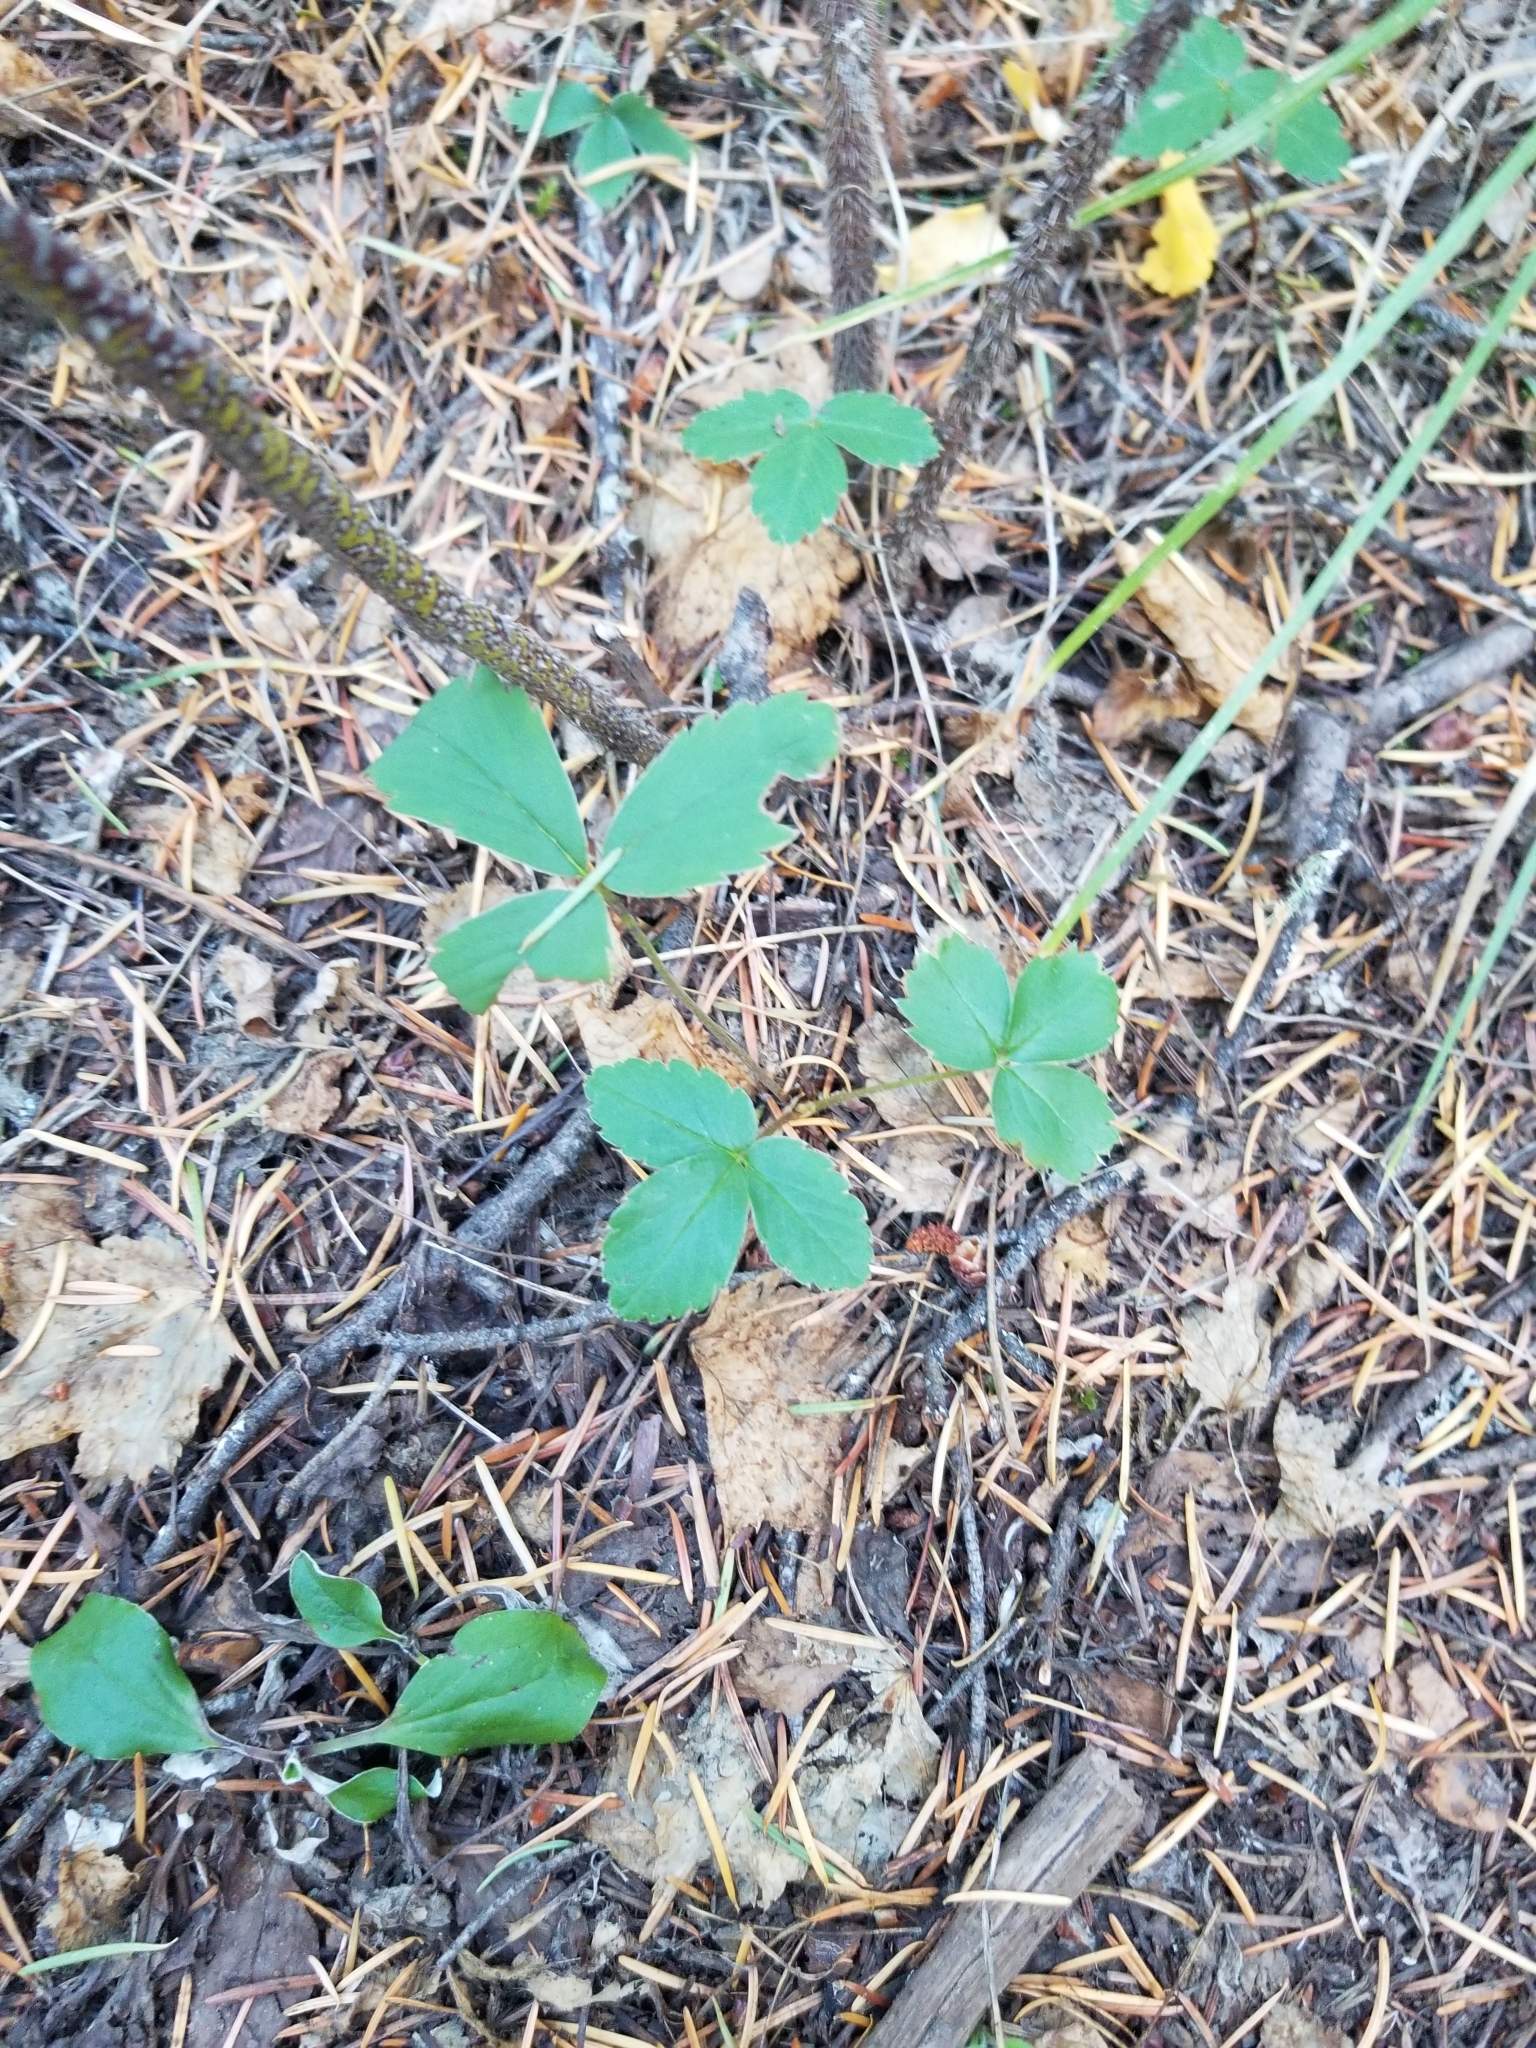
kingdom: Plantae
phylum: Tracheophyta
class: Magnoliopsida
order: Rosales
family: Rosaceae
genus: Fragaria
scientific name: Fragaria virginiana
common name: Thickleaved wild strawberry
